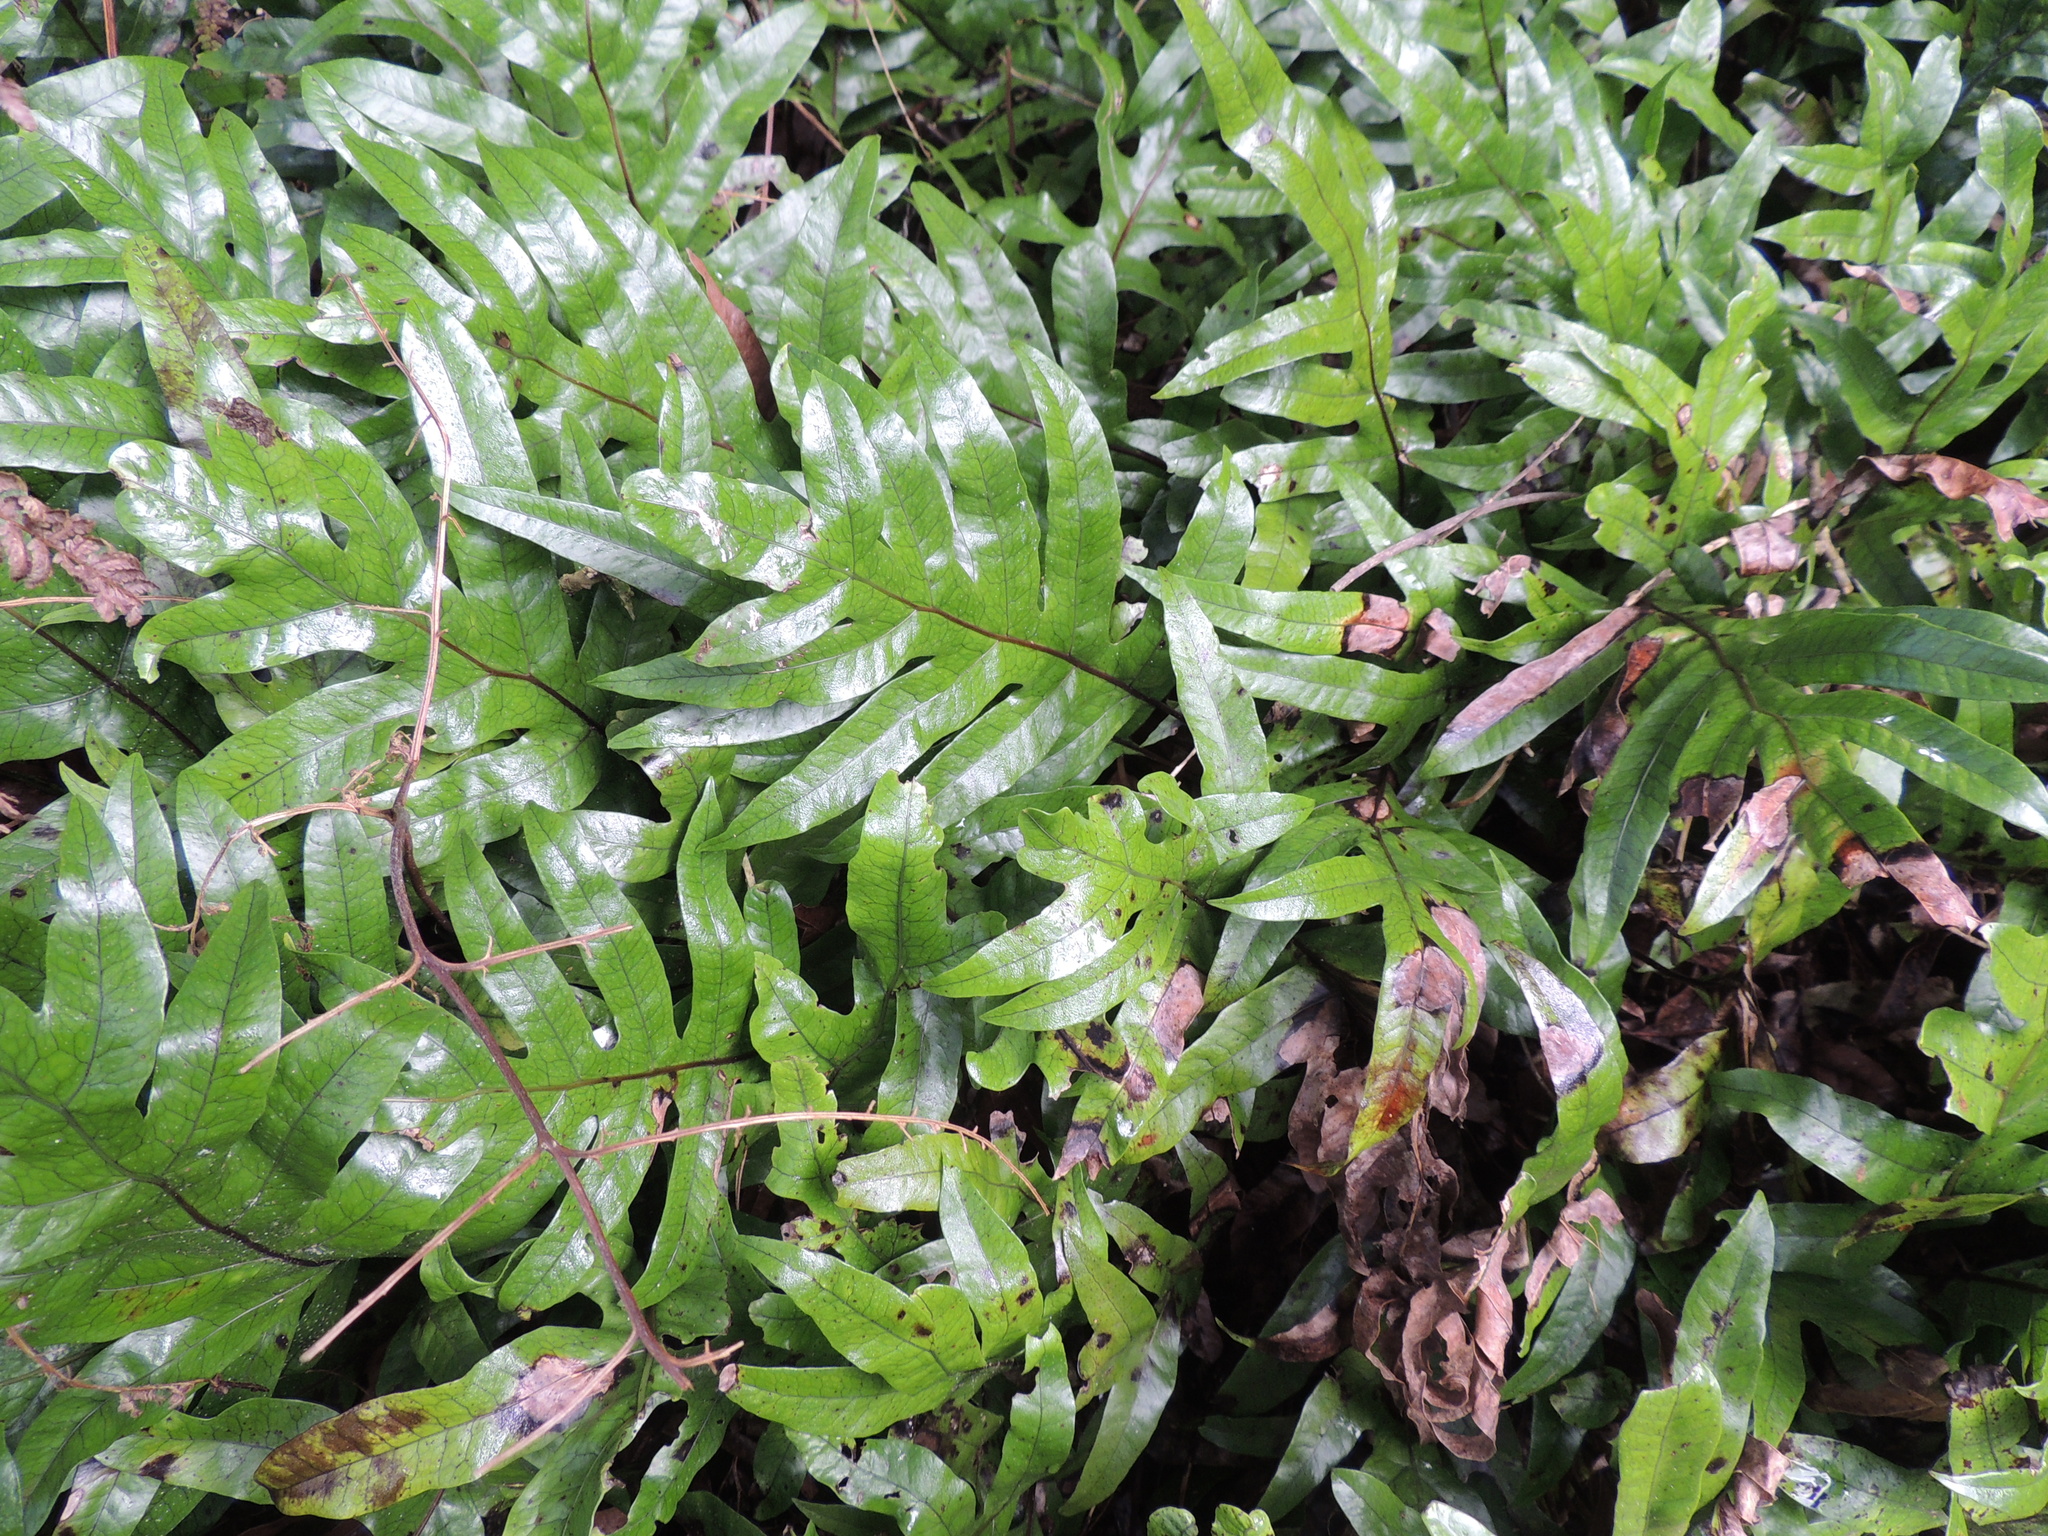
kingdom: Plantae
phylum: Tracheophyta
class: Polypodiopsida
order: Polypodiales
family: Polypodiaceae
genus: Lecanopteris
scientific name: Lecanopteris pustulata
